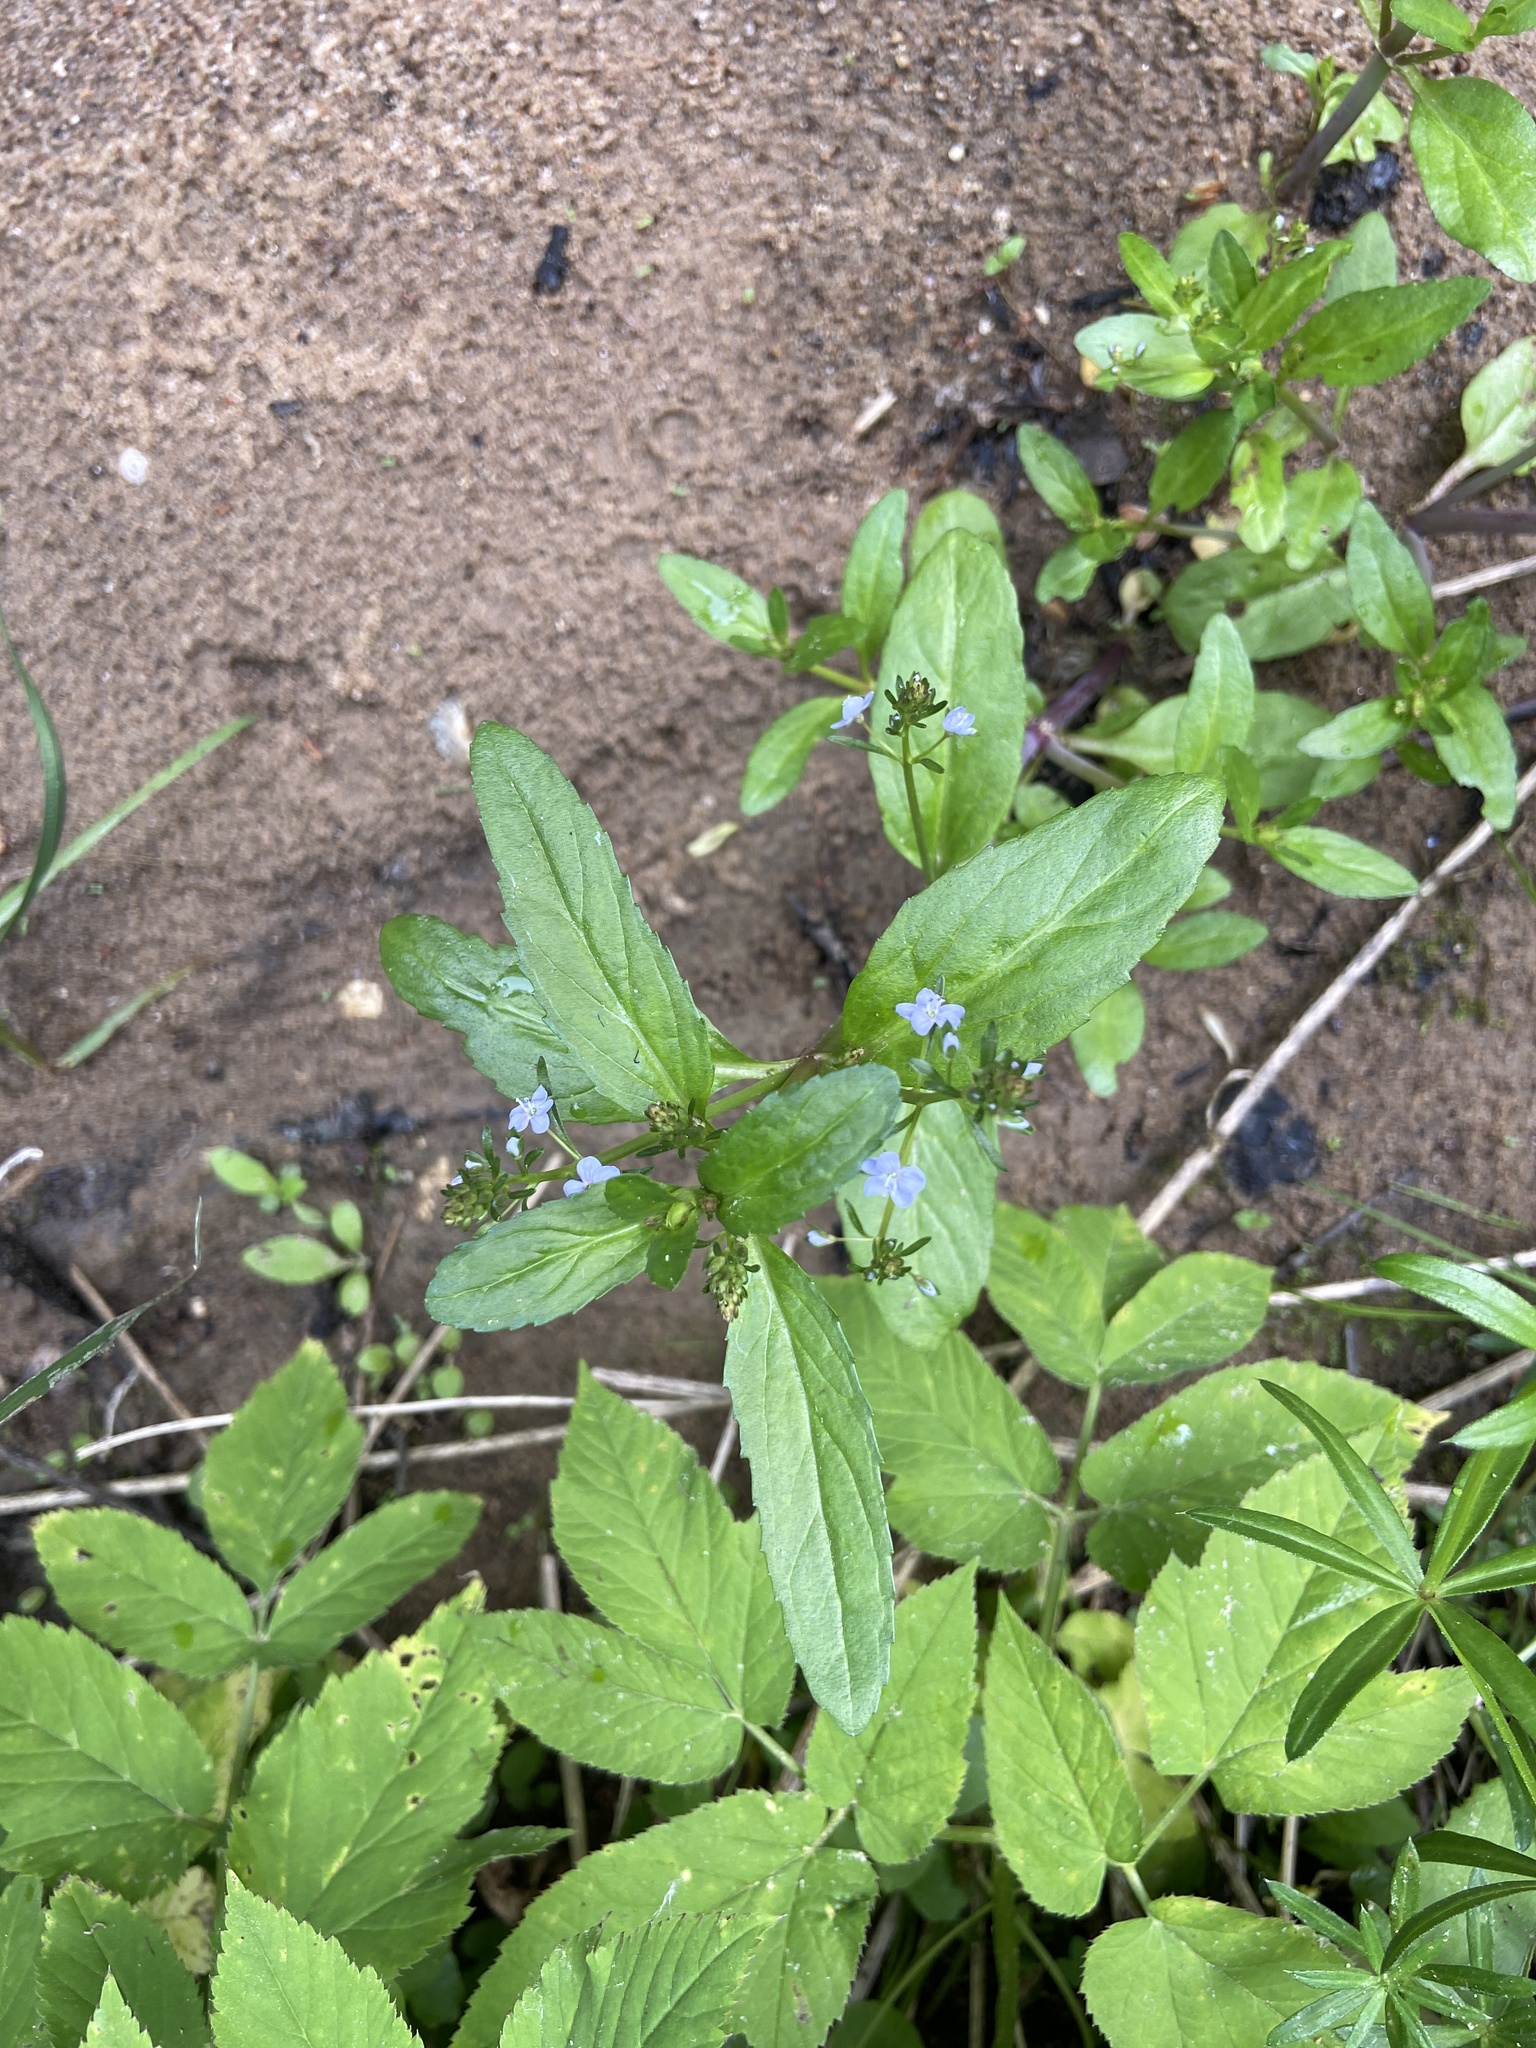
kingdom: Plantae
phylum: Tracheophyta
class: Magnoliopsida
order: Lamiales
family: Plantaginaceae
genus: Veronica
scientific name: Veronica beccabunga
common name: Brooklime
